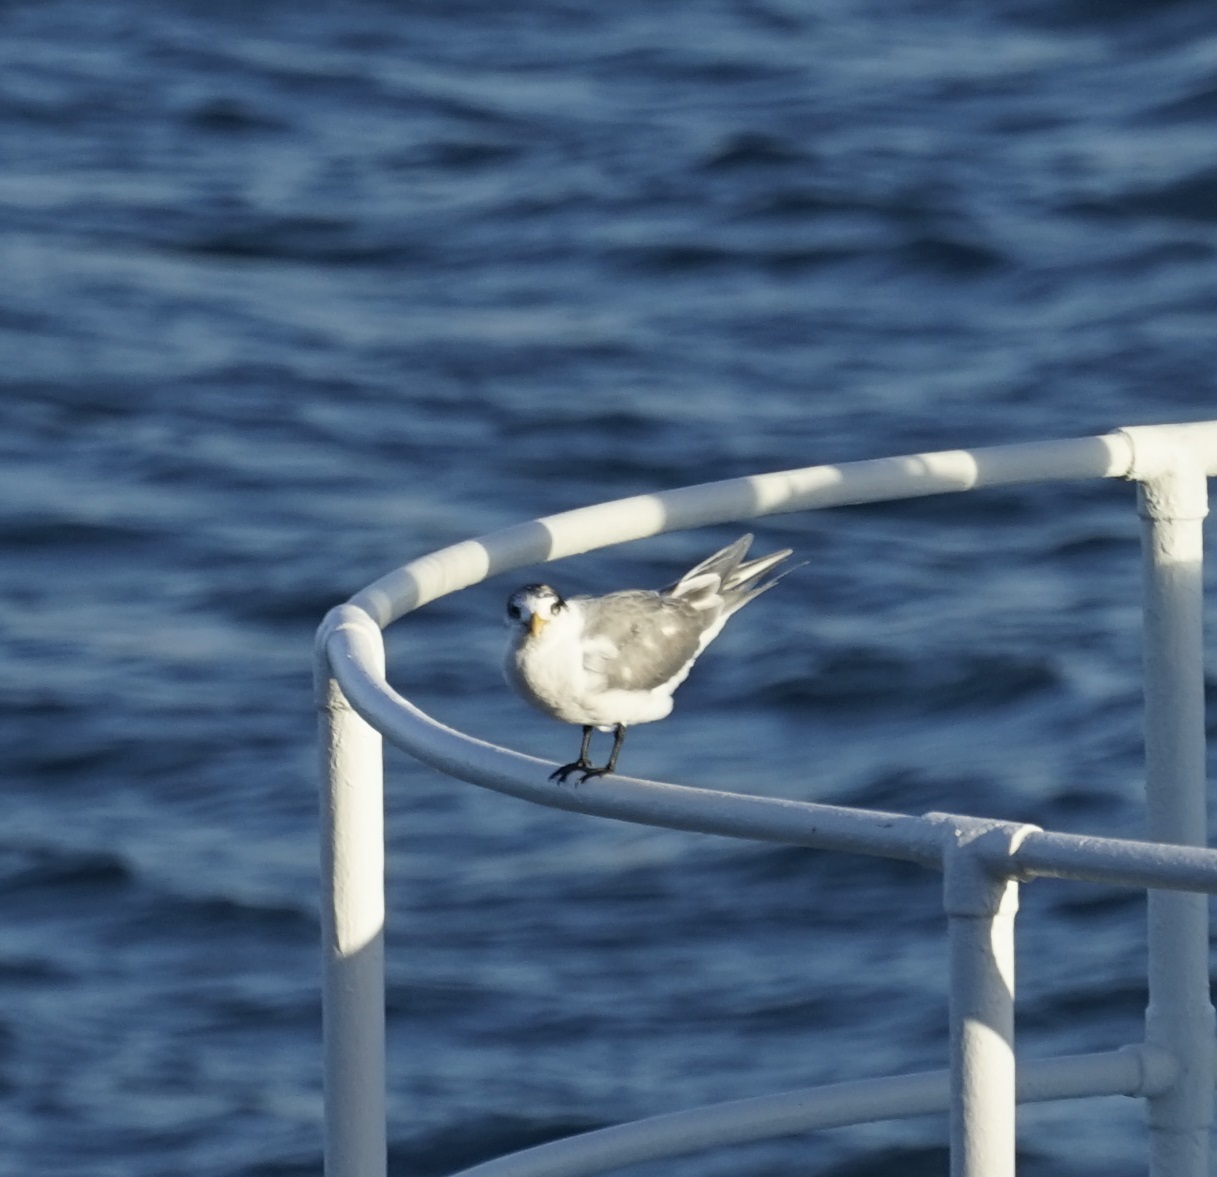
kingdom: Animalia
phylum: Chordata
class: Aves
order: Charadriiformes
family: Laridae
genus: Thalasseus
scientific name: Thalasseus bergii
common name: Greater crested tern
